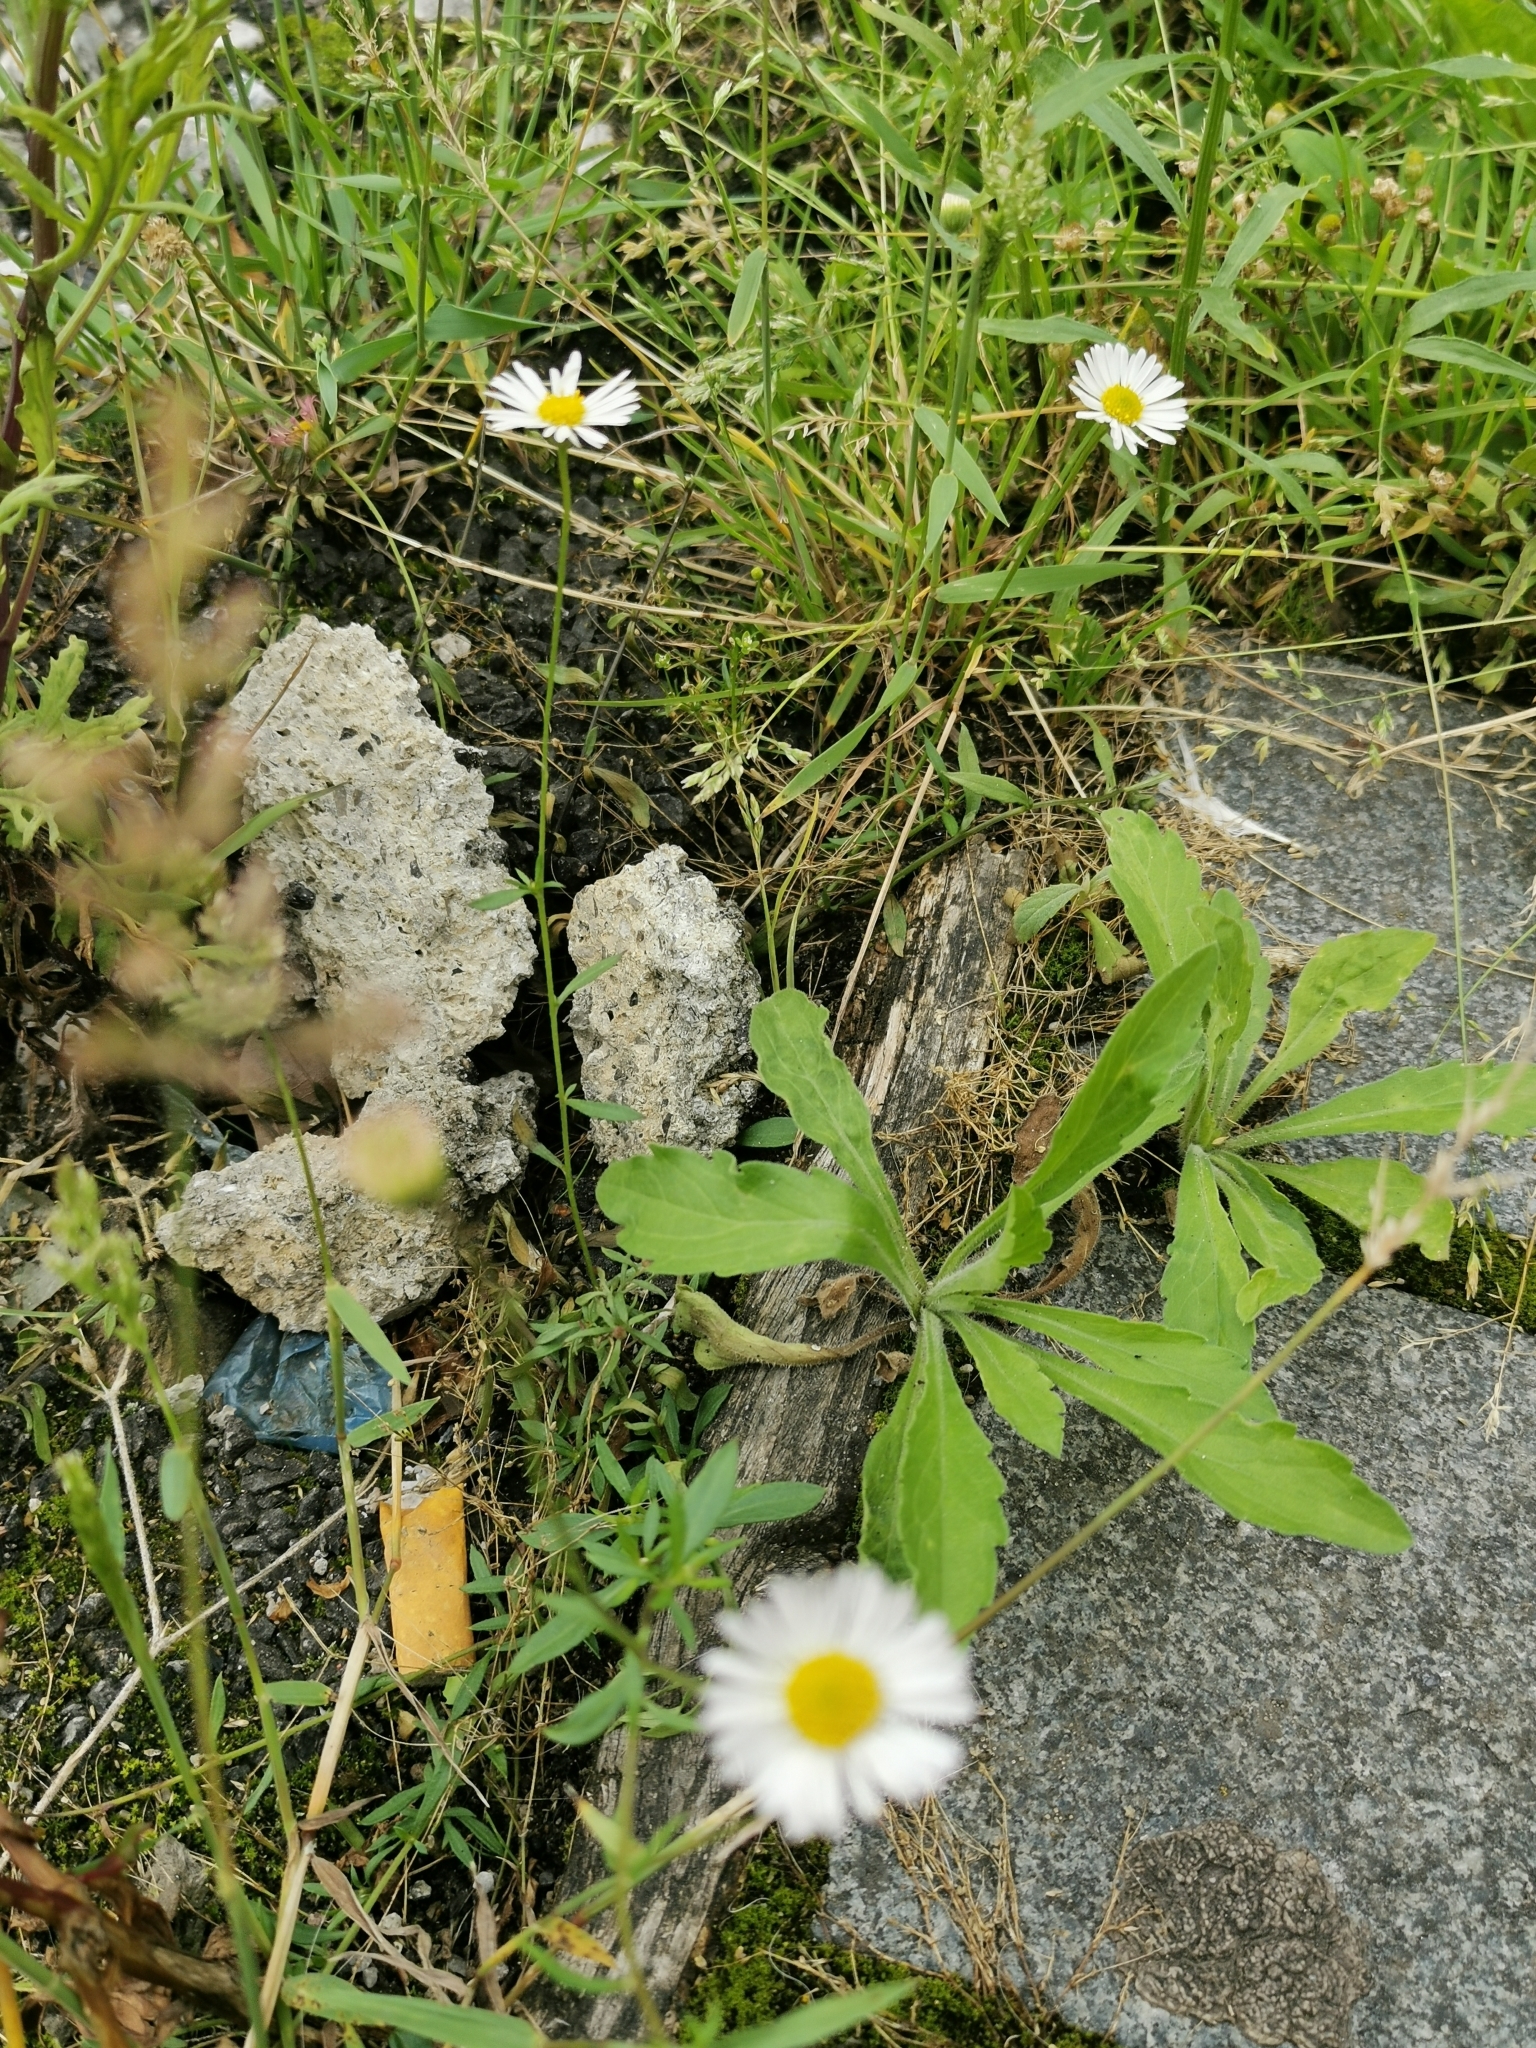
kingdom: Plantae
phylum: Tracheophyta
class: Magnoliopsida
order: Asterales
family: Asteraceae
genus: Erigeron
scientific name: Erigeron karvinskianus
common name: Mexican fleabane
